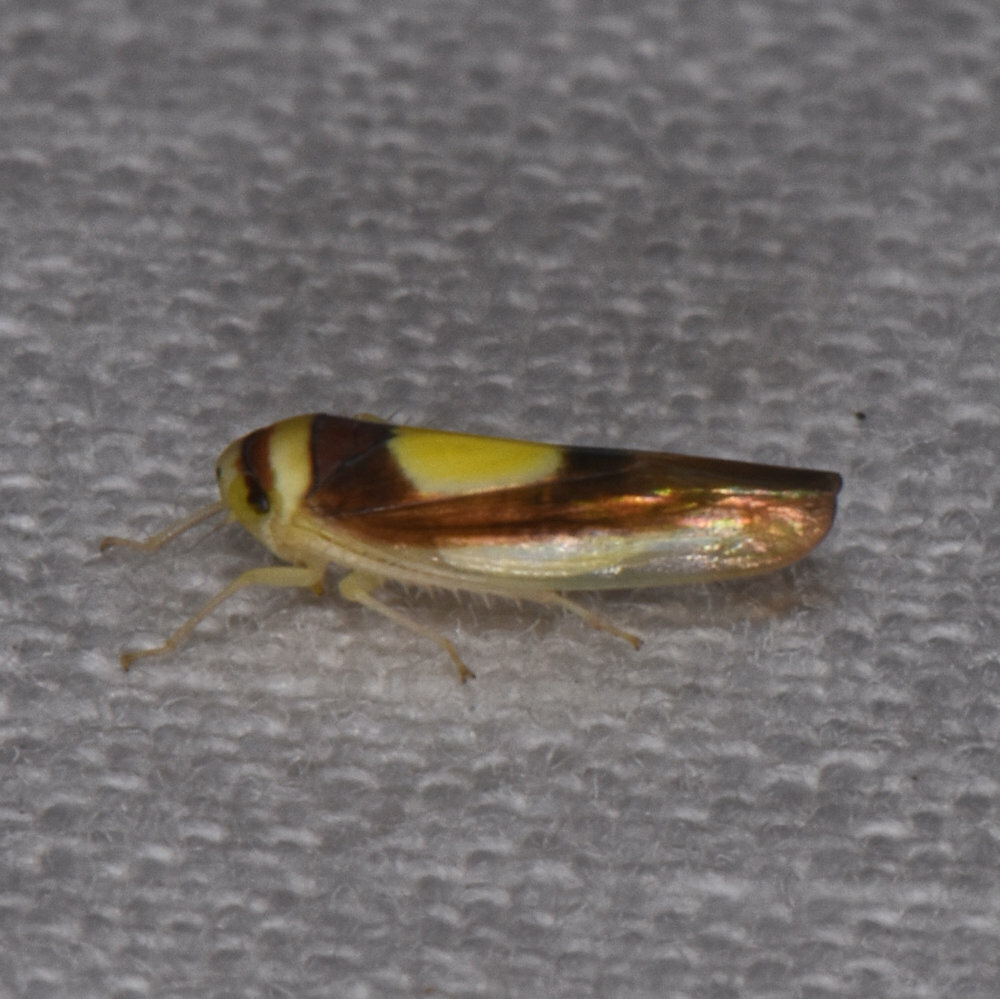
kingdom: Animalia
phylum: Arthropoda
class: Insecta
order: Hemiptera
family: Cicadellidae
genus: Colladonus
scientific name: Colladonus clitellarius
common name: The saddleback leafhopper
